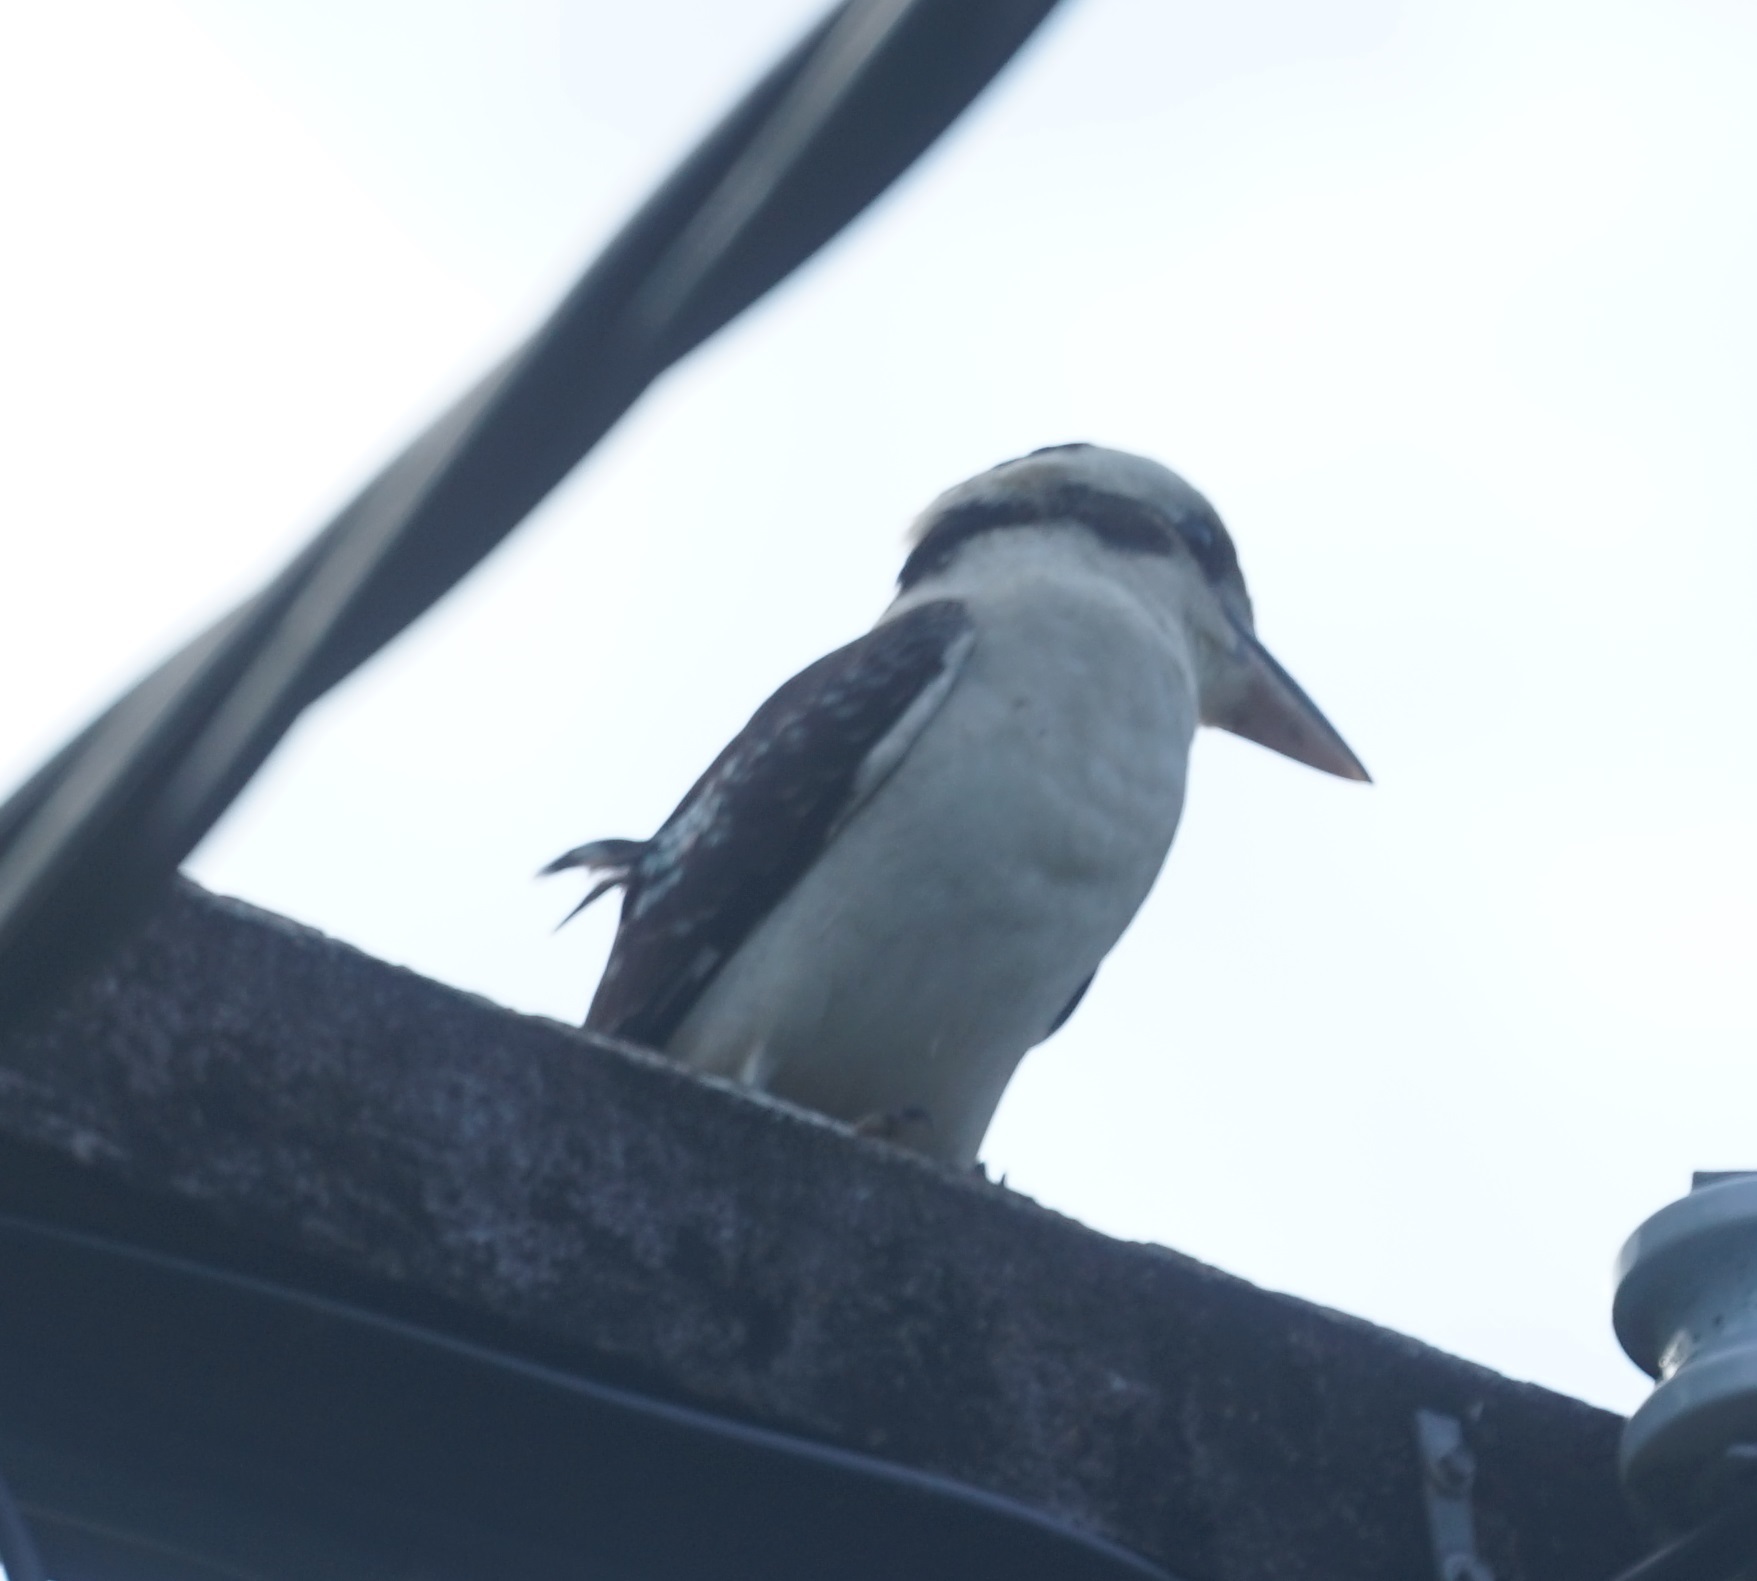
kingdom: Animalia
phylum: Chordata
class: Aves
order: Coraciiformes
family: Alcedinidae
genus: Dacelo
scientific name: Dacelo novaeguineae
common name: Laughing kookaburra
